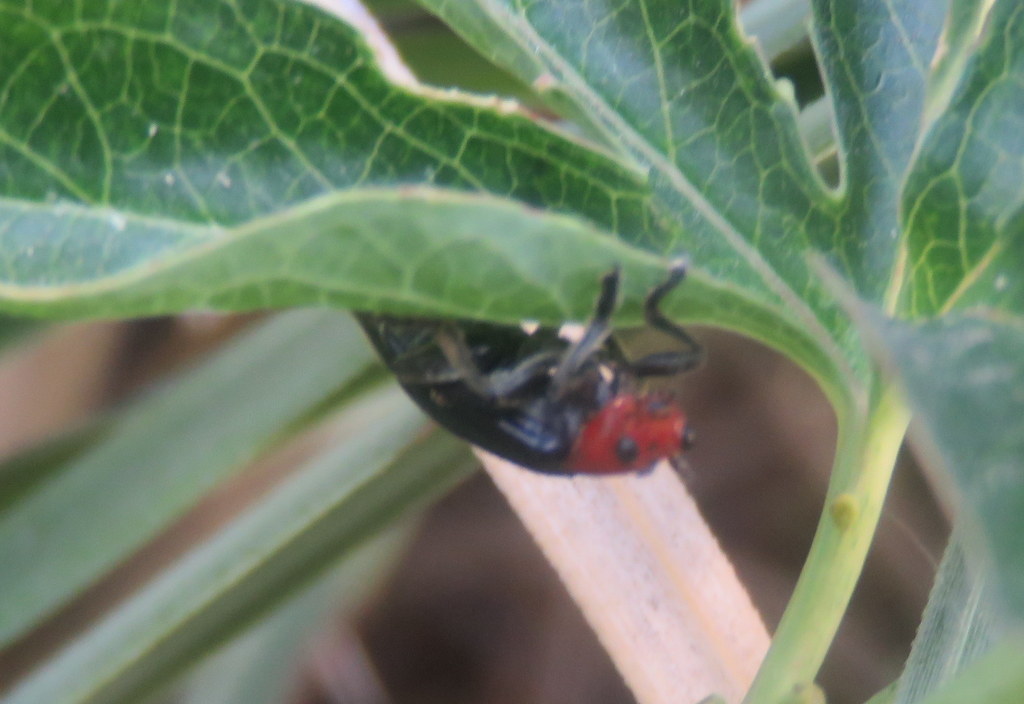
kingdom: Animalia
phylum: Arthropoda
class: Insecta
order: Coleoptera
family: Chrysomelidae
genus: Cacoscelis
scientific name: Cacoscelis
